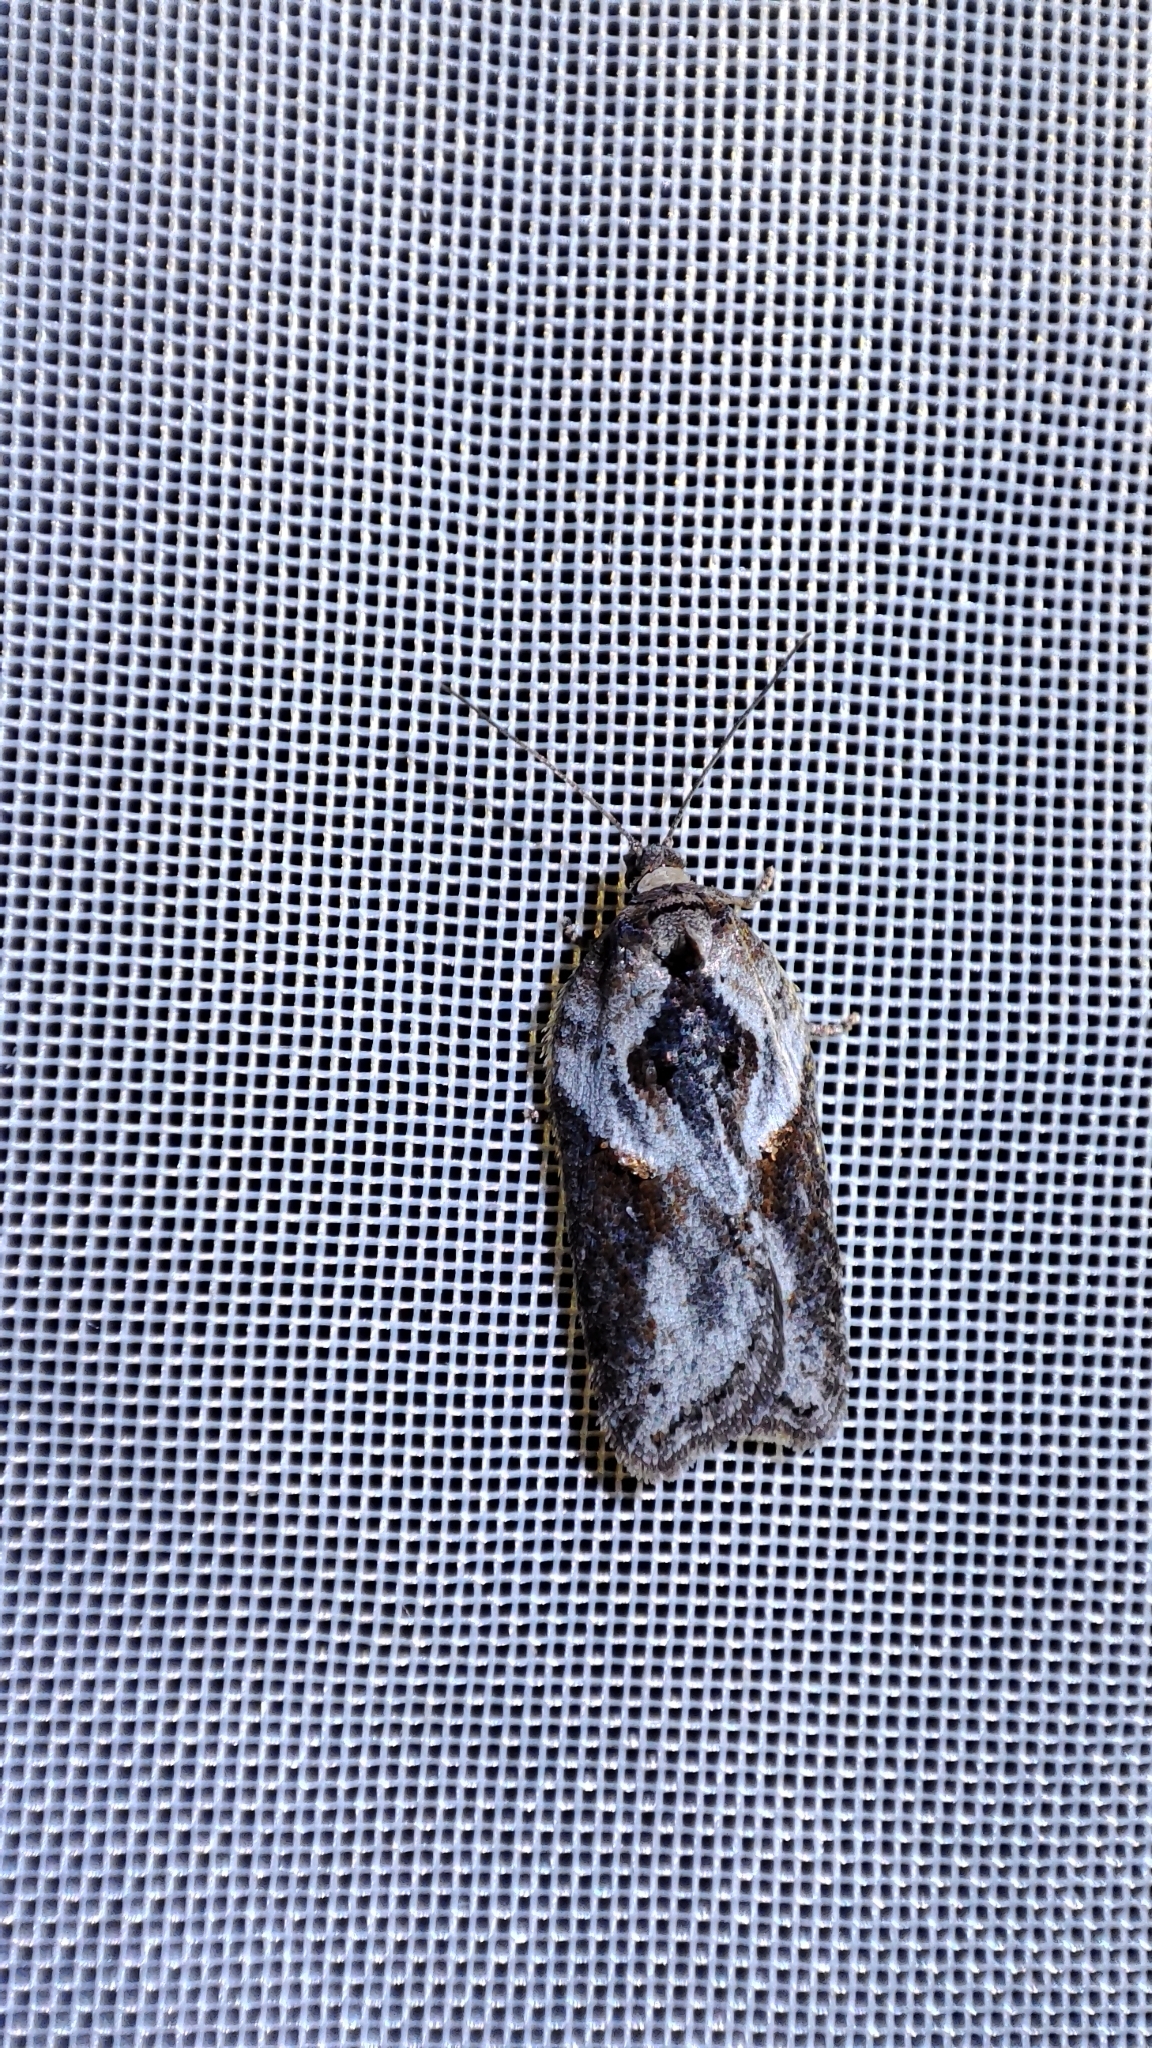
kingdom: Animalia
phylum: Arthropoda
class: Insecta
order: Lepidoptera
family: Tortricidae
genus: Acleris
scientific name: Acleris hastiana
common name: Sallow button
